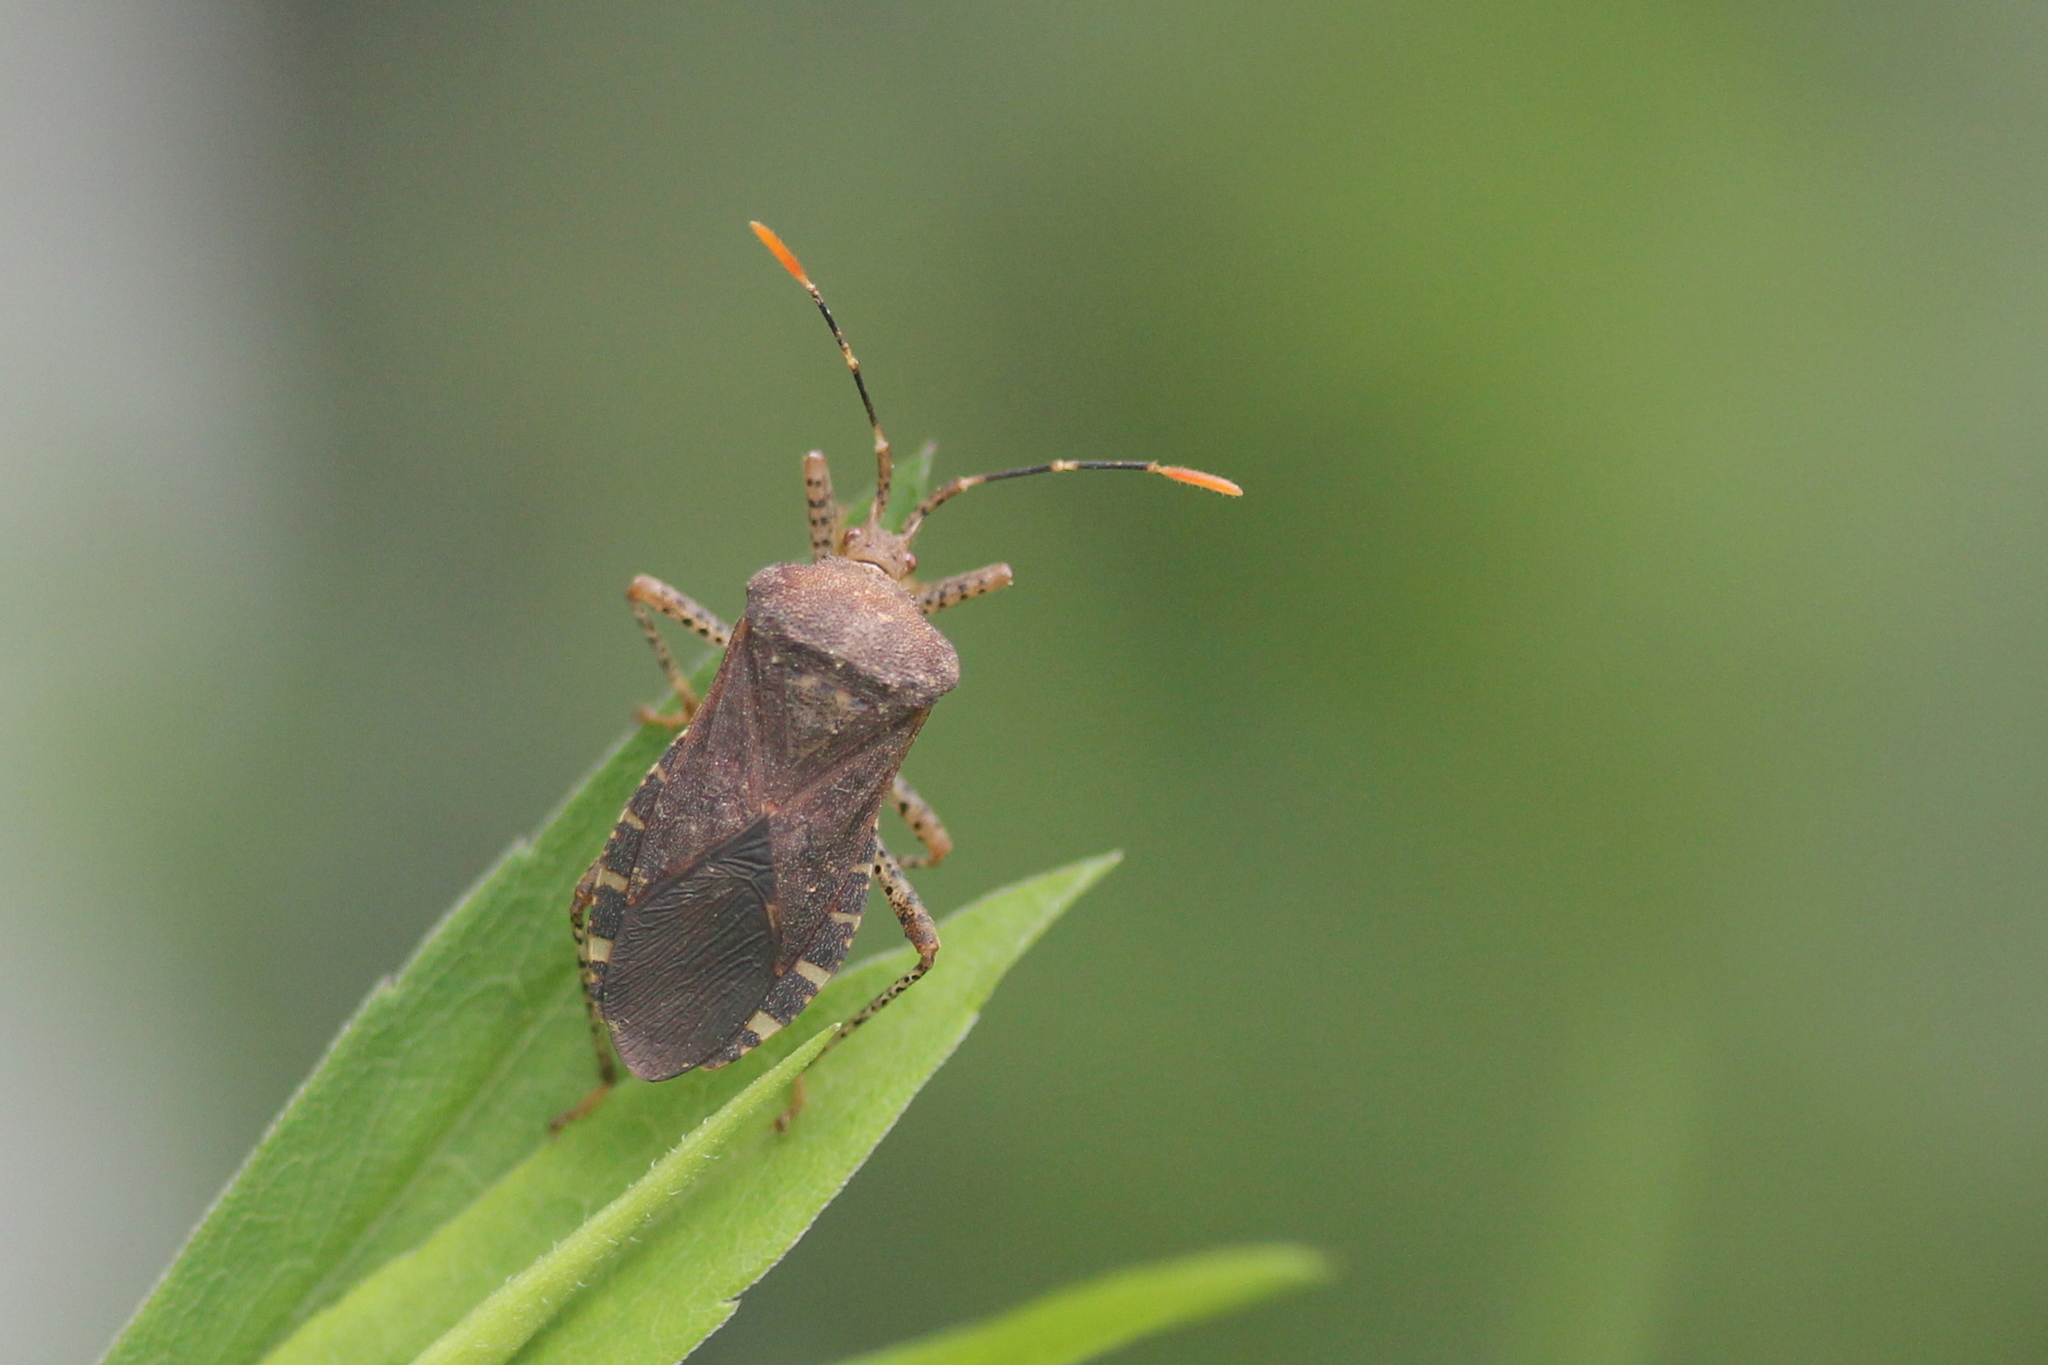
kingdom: Animalia
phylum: Arthropoda
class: Insecta
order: Hemiptera
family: Coreidae
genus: Anasa
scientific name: Anasa armigera
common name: Horned squash bug
